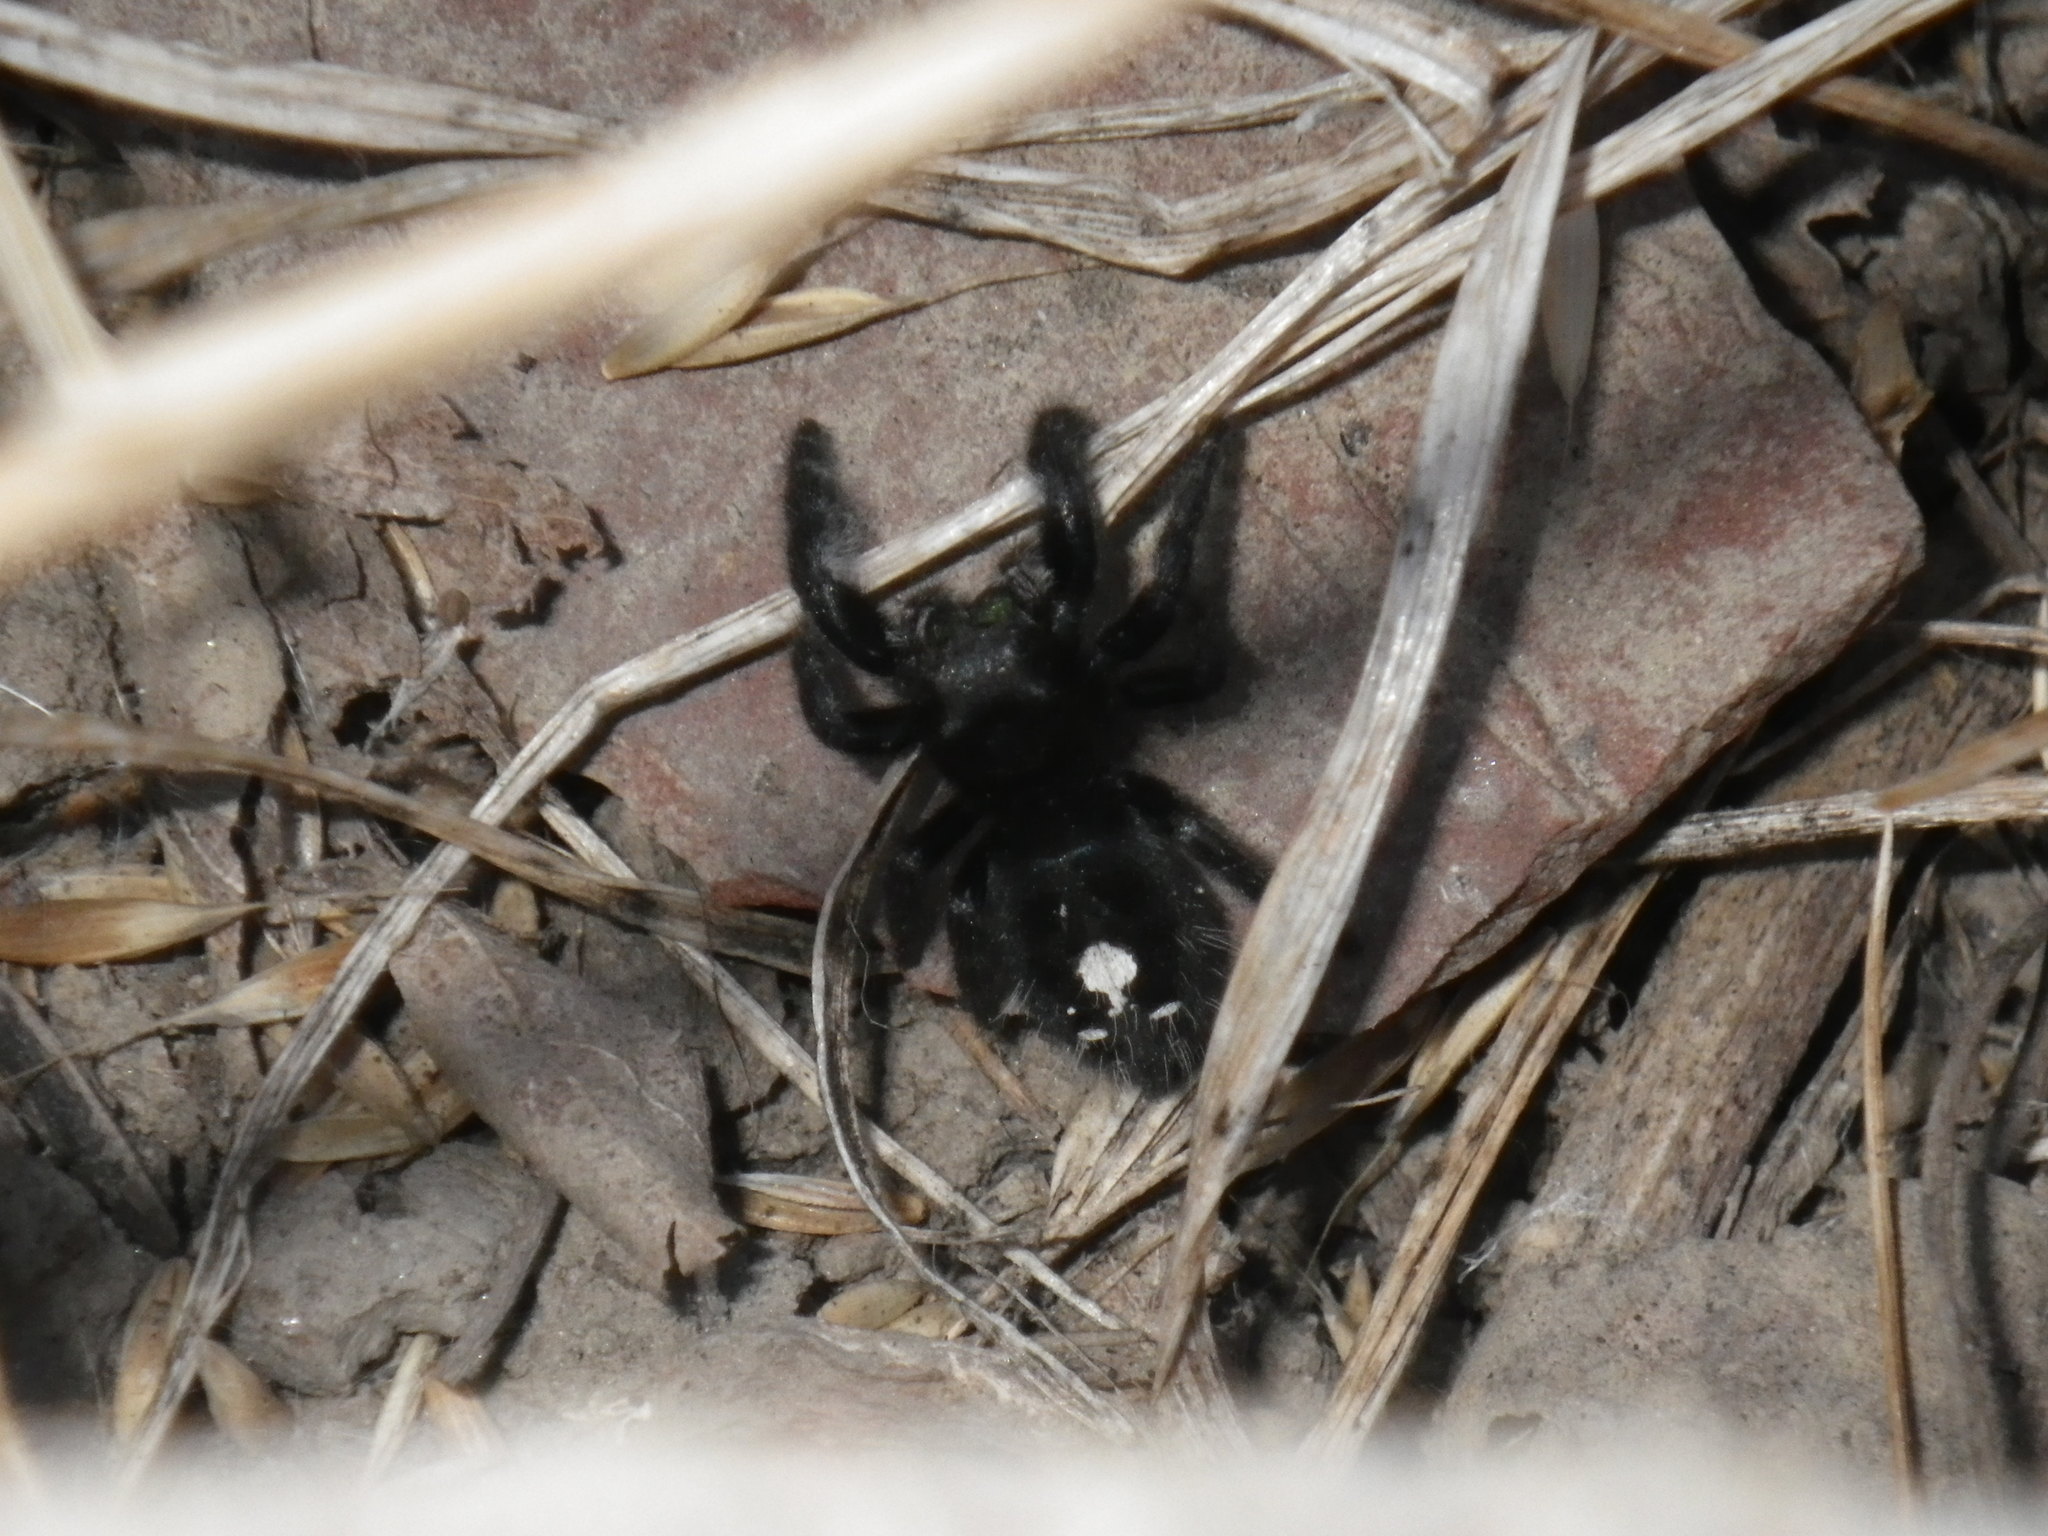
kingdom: Animalia
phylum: Arthropoda
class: Arachnida
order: Araneae
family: Salticidae
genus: Phidippus
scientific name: Phidippus audax
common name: Bold jumper
